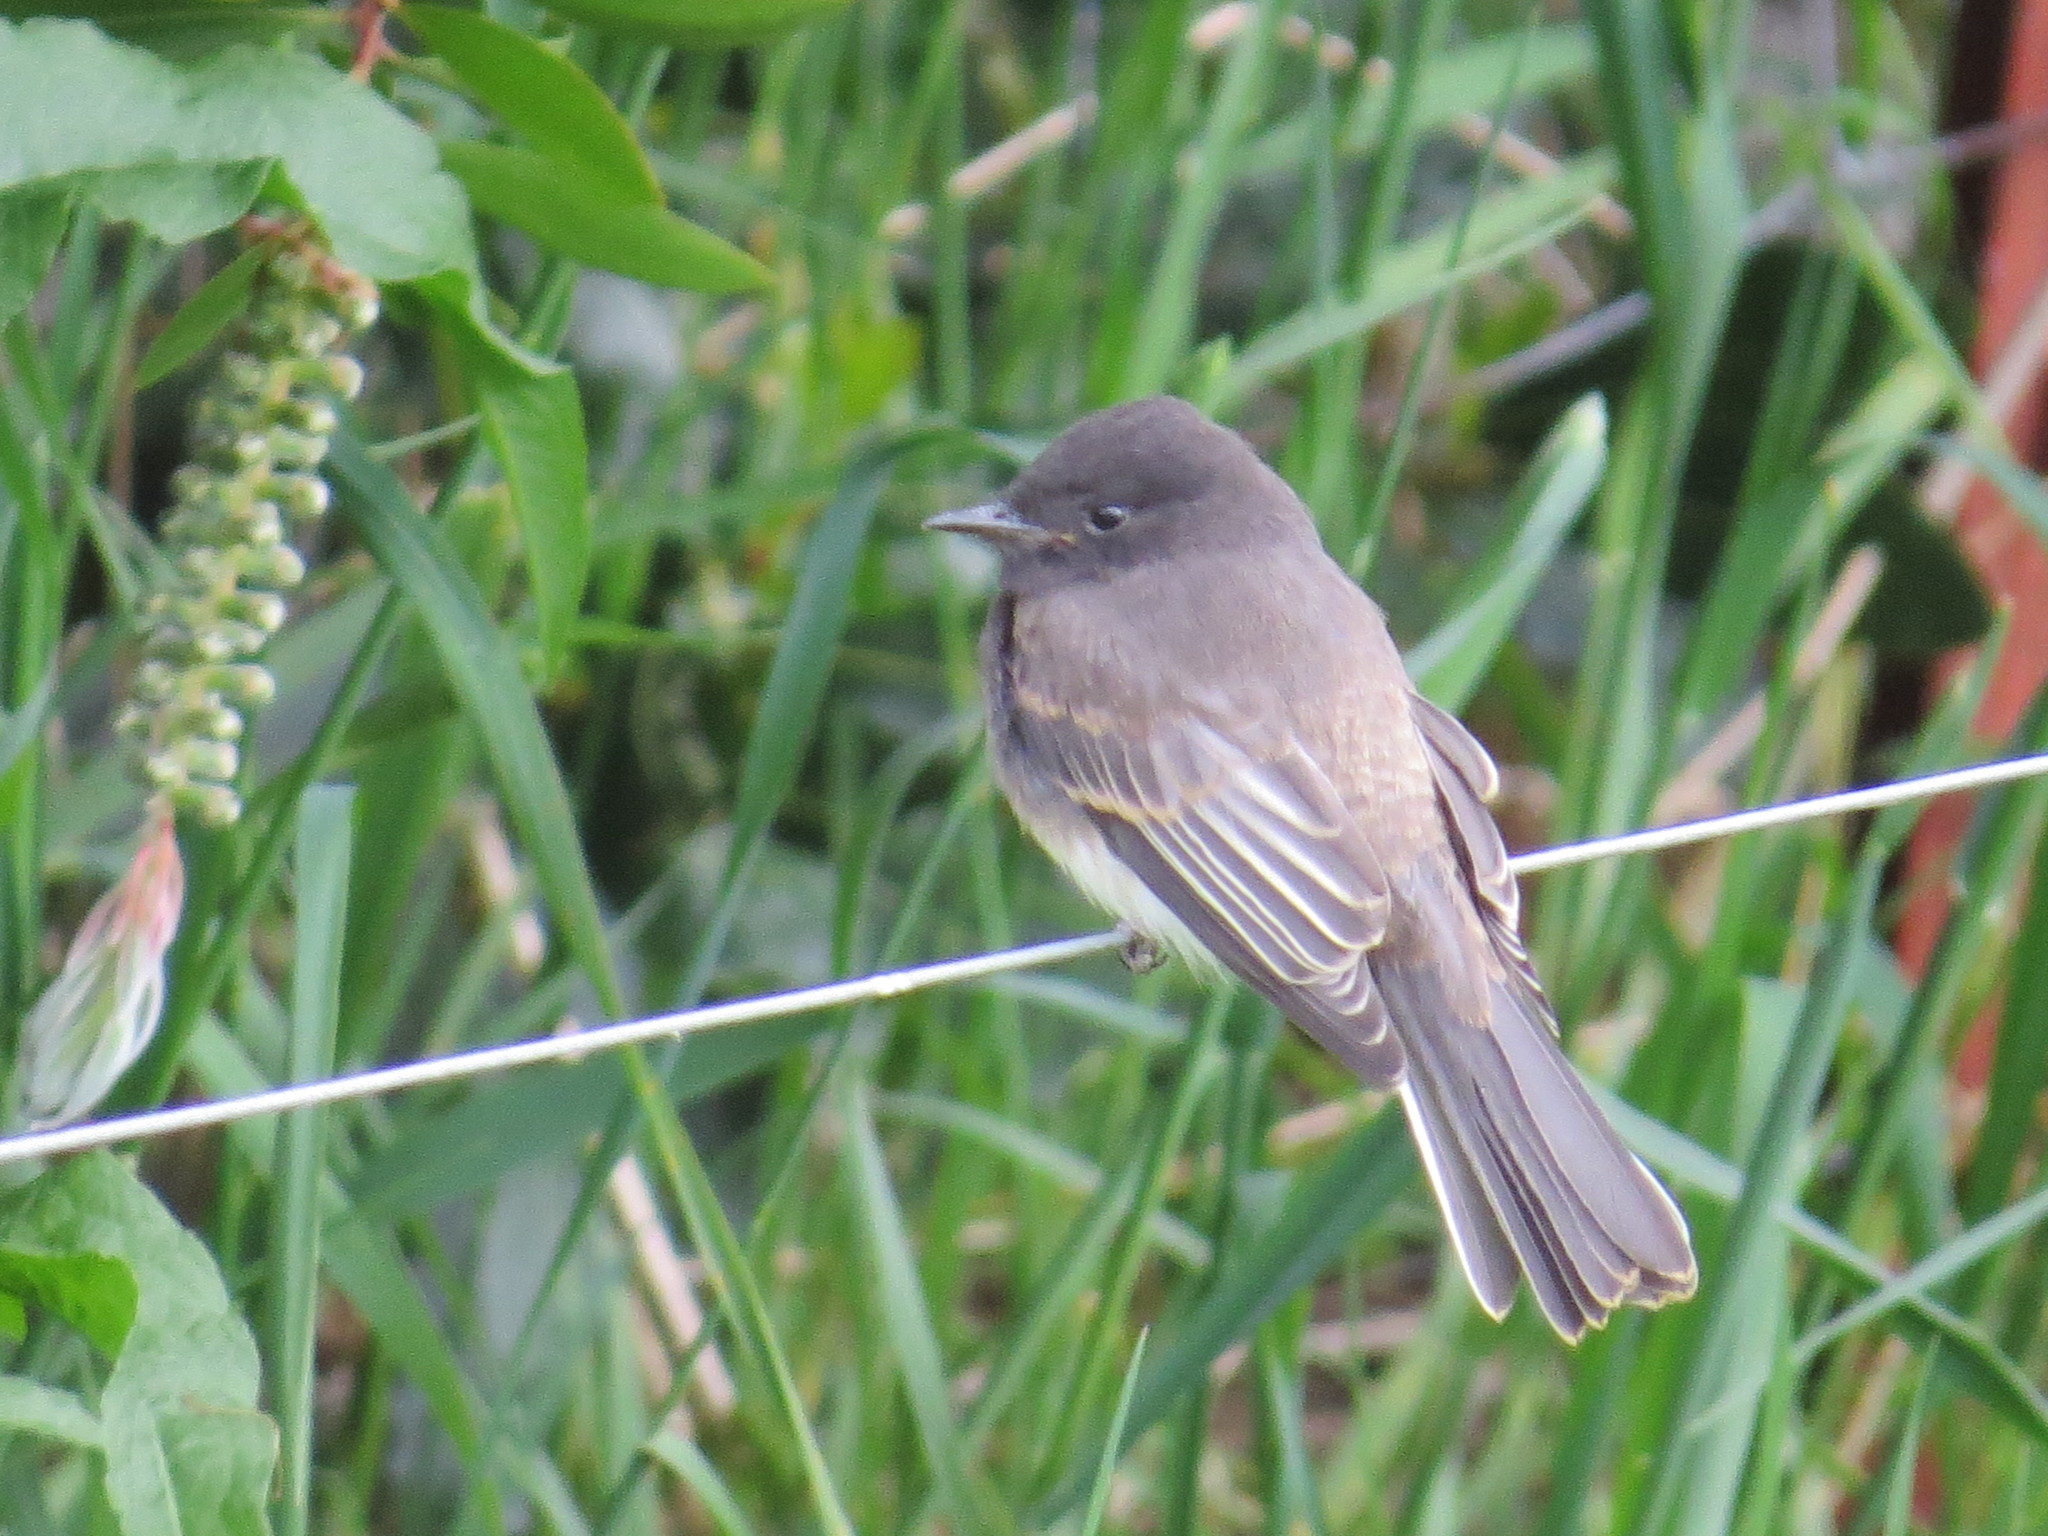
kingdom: Animalia
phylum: Chordata
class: Aves
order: Passeriformes
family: Tyrannidae
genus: Sayornis
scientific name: Sayornis nigricans
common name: Black phoebe
